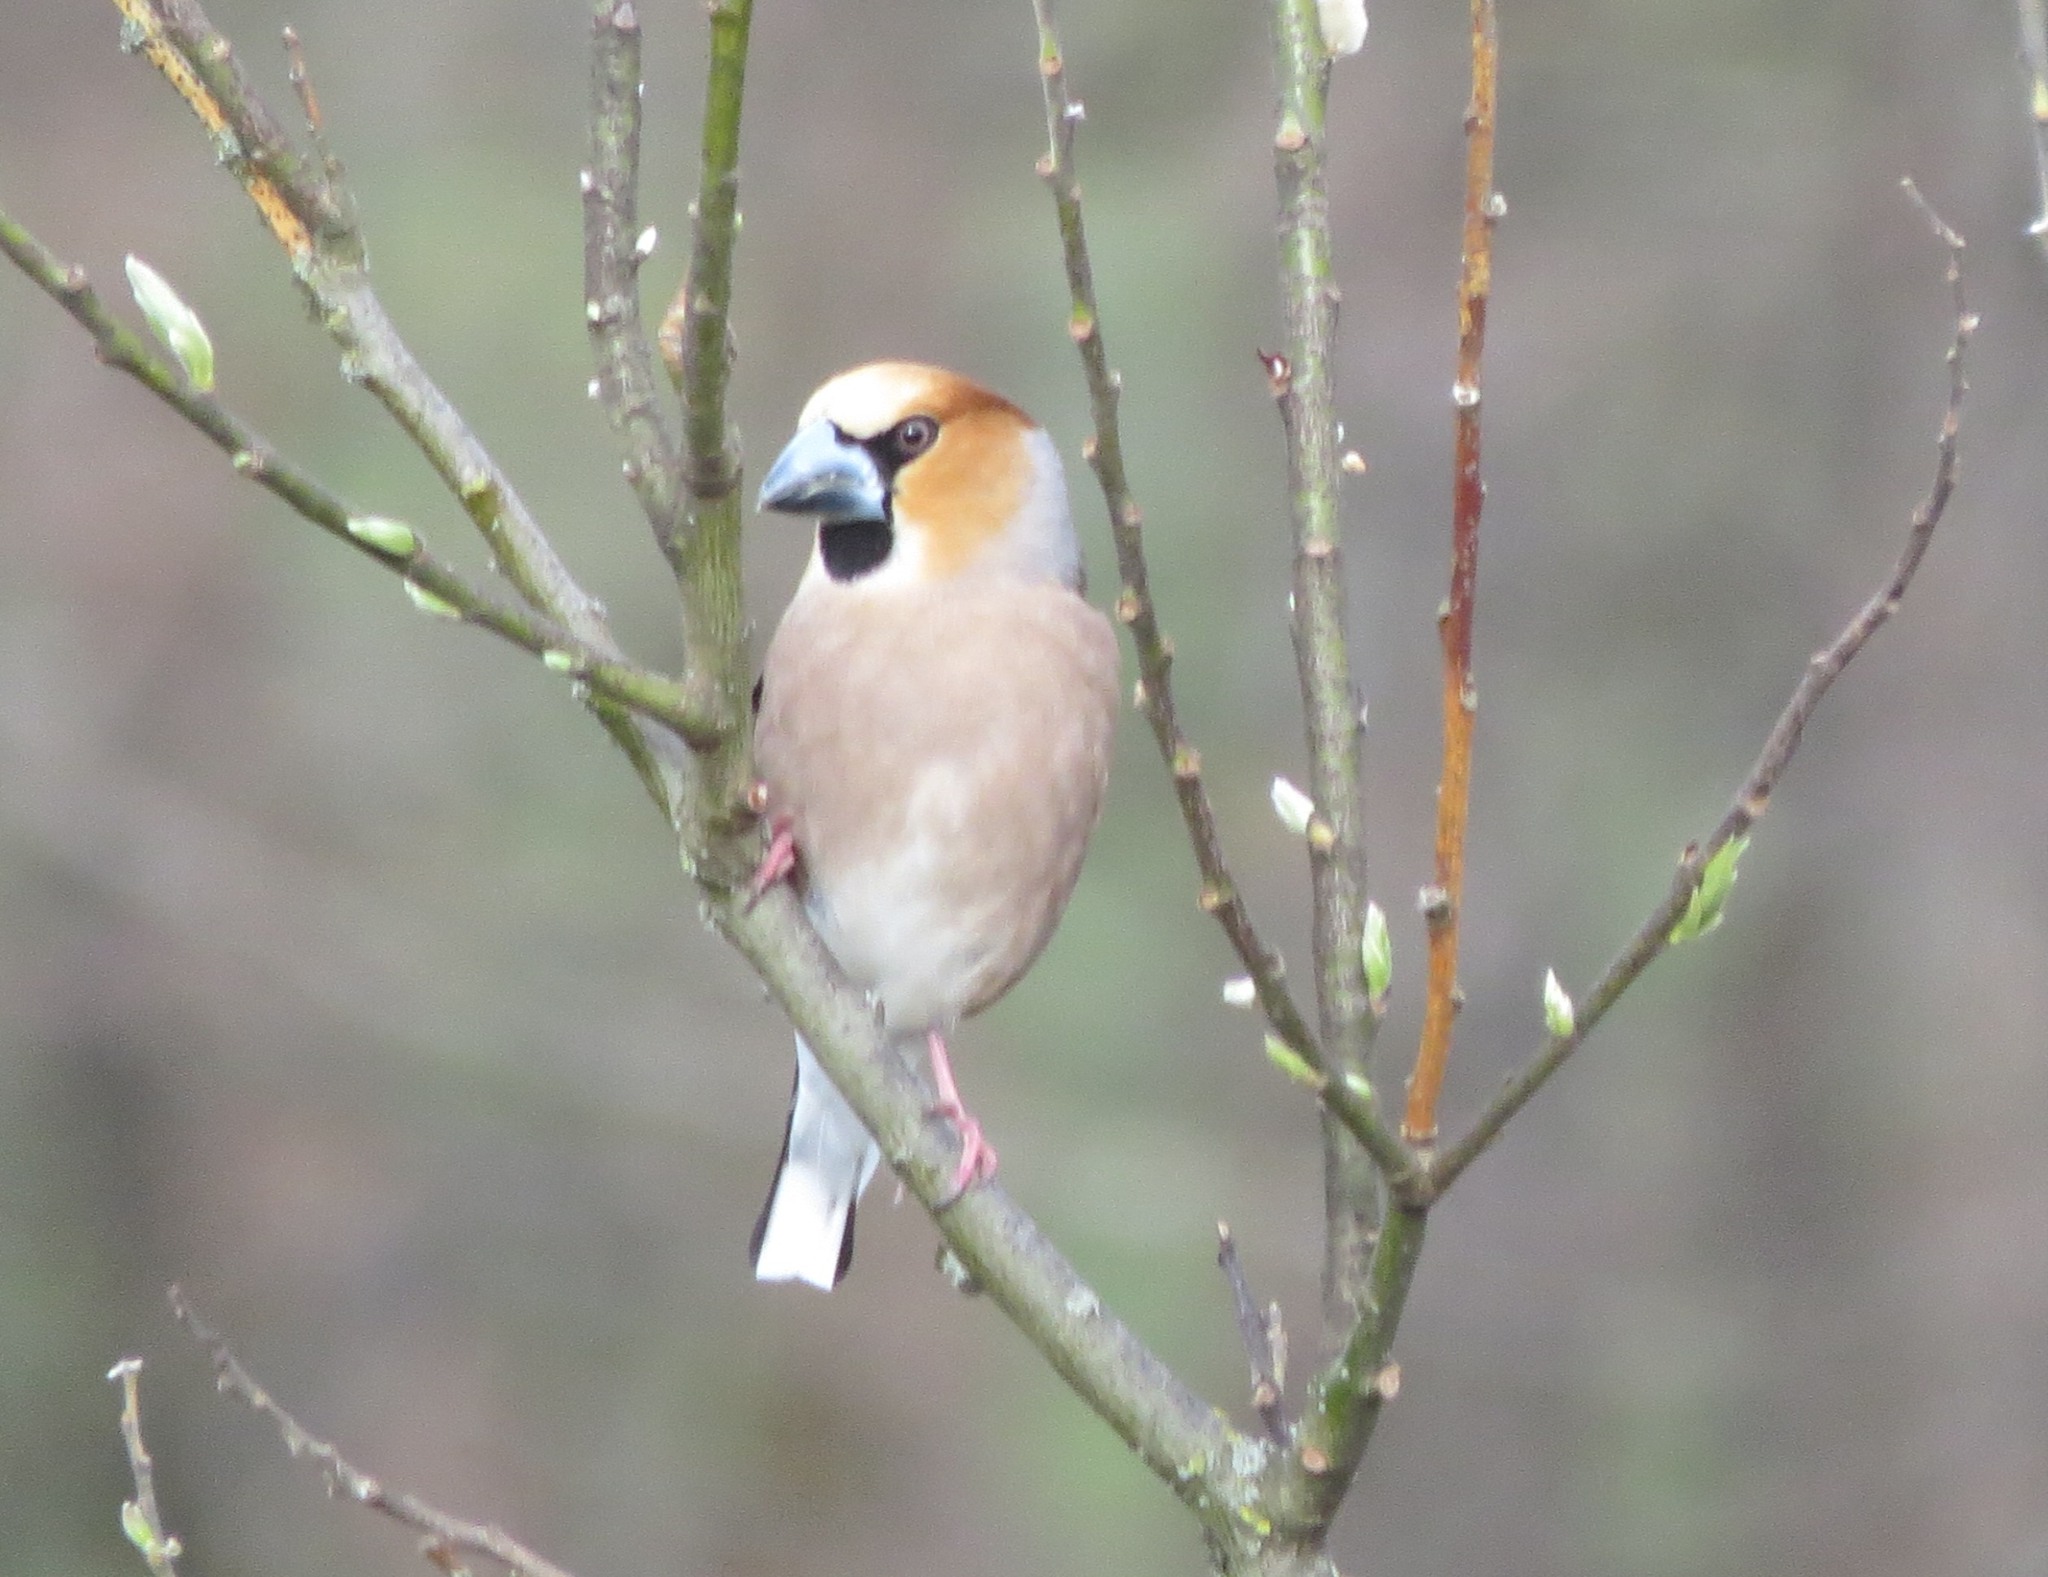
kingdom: Animalia
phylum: Chordata
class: Aves
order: Passeriformes
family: Fringillidae
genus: Coccothraustes
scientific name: Coccothraustes coccothraustes
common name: Hawfinch
